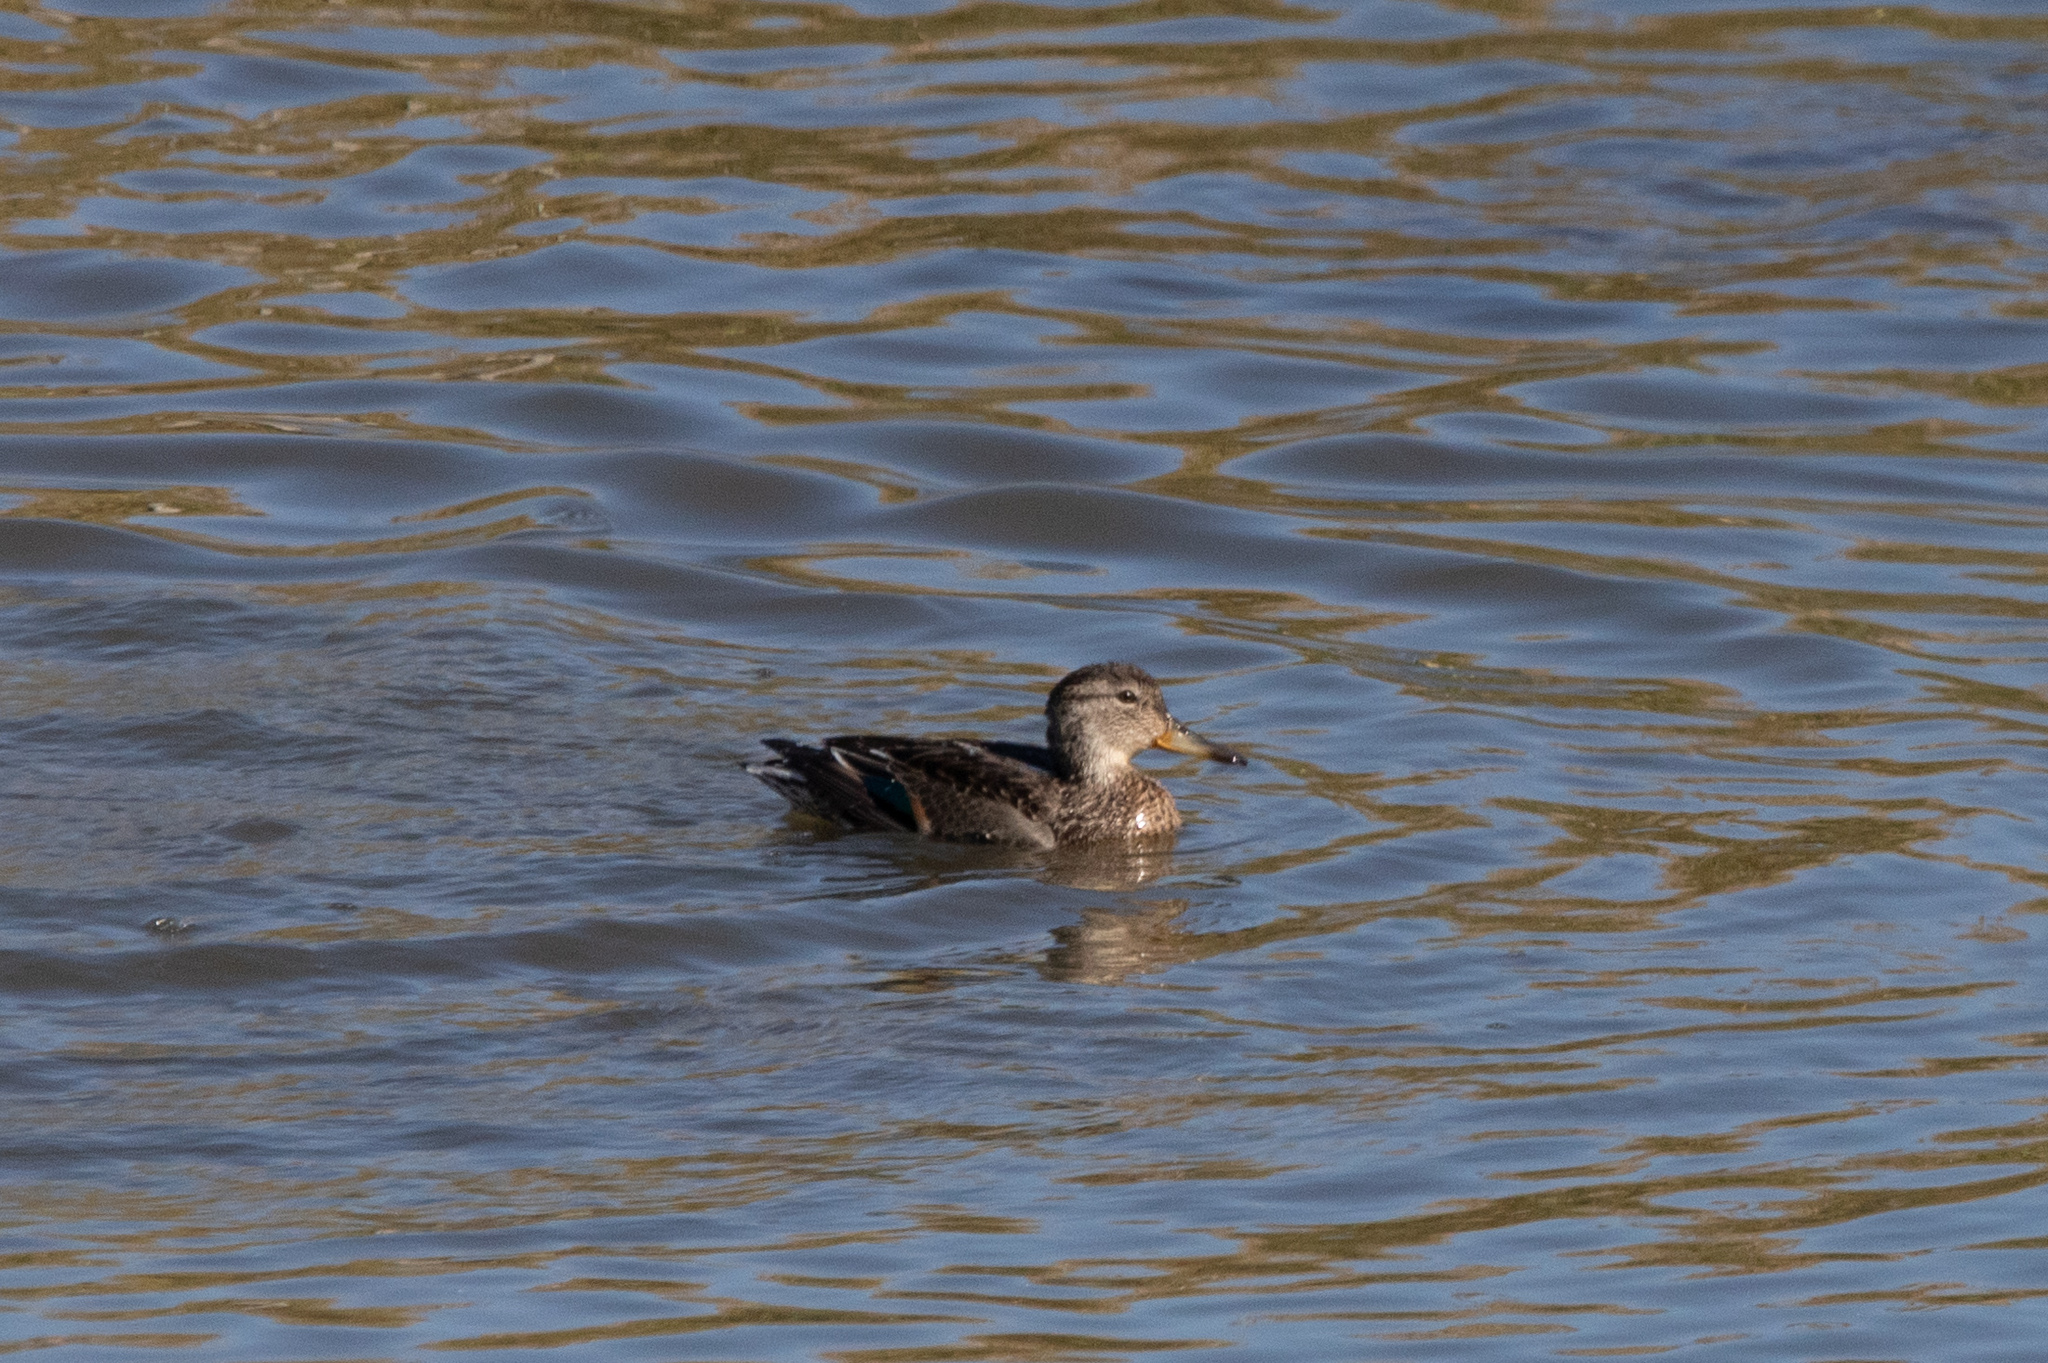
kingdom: Animalia
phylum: Chordata
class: Aves
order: Anseriformes
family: Anatidae
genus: Anas
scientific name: Anas crecca
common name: Eurasian teal
